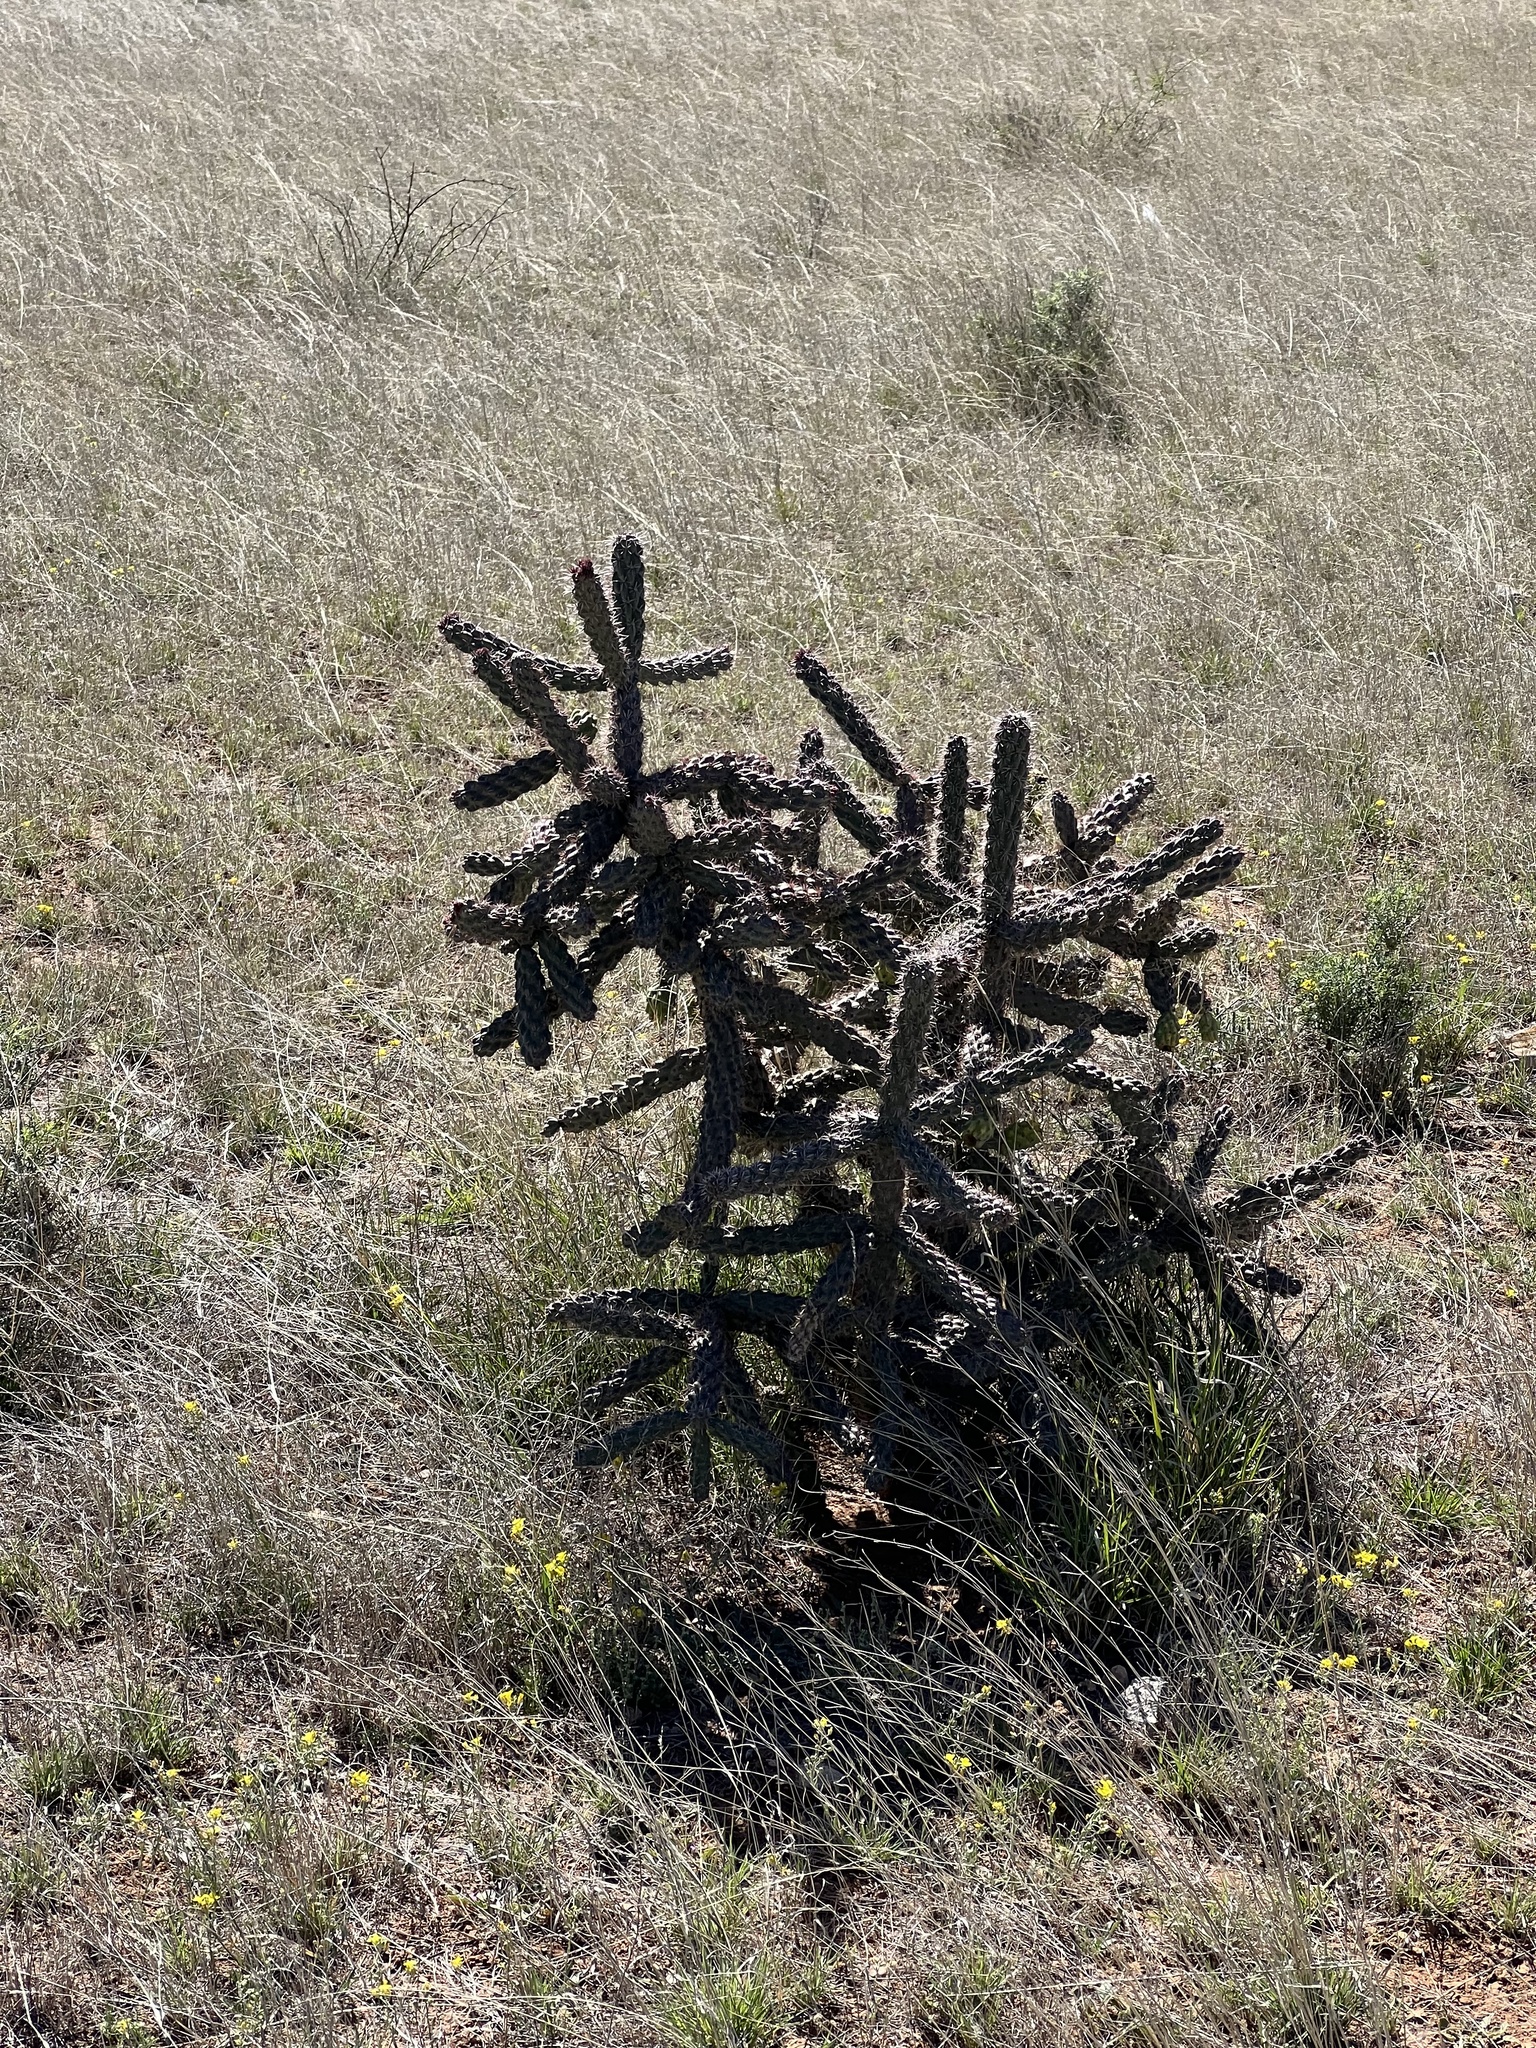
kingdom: Plantae
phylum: Tracheophyta
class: Magnoliopsida
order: Caryophyllales
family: Cactaceae
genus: Cylindropuntia
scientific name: Cylindropuntia imbricata
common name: Candelabrum cactus
